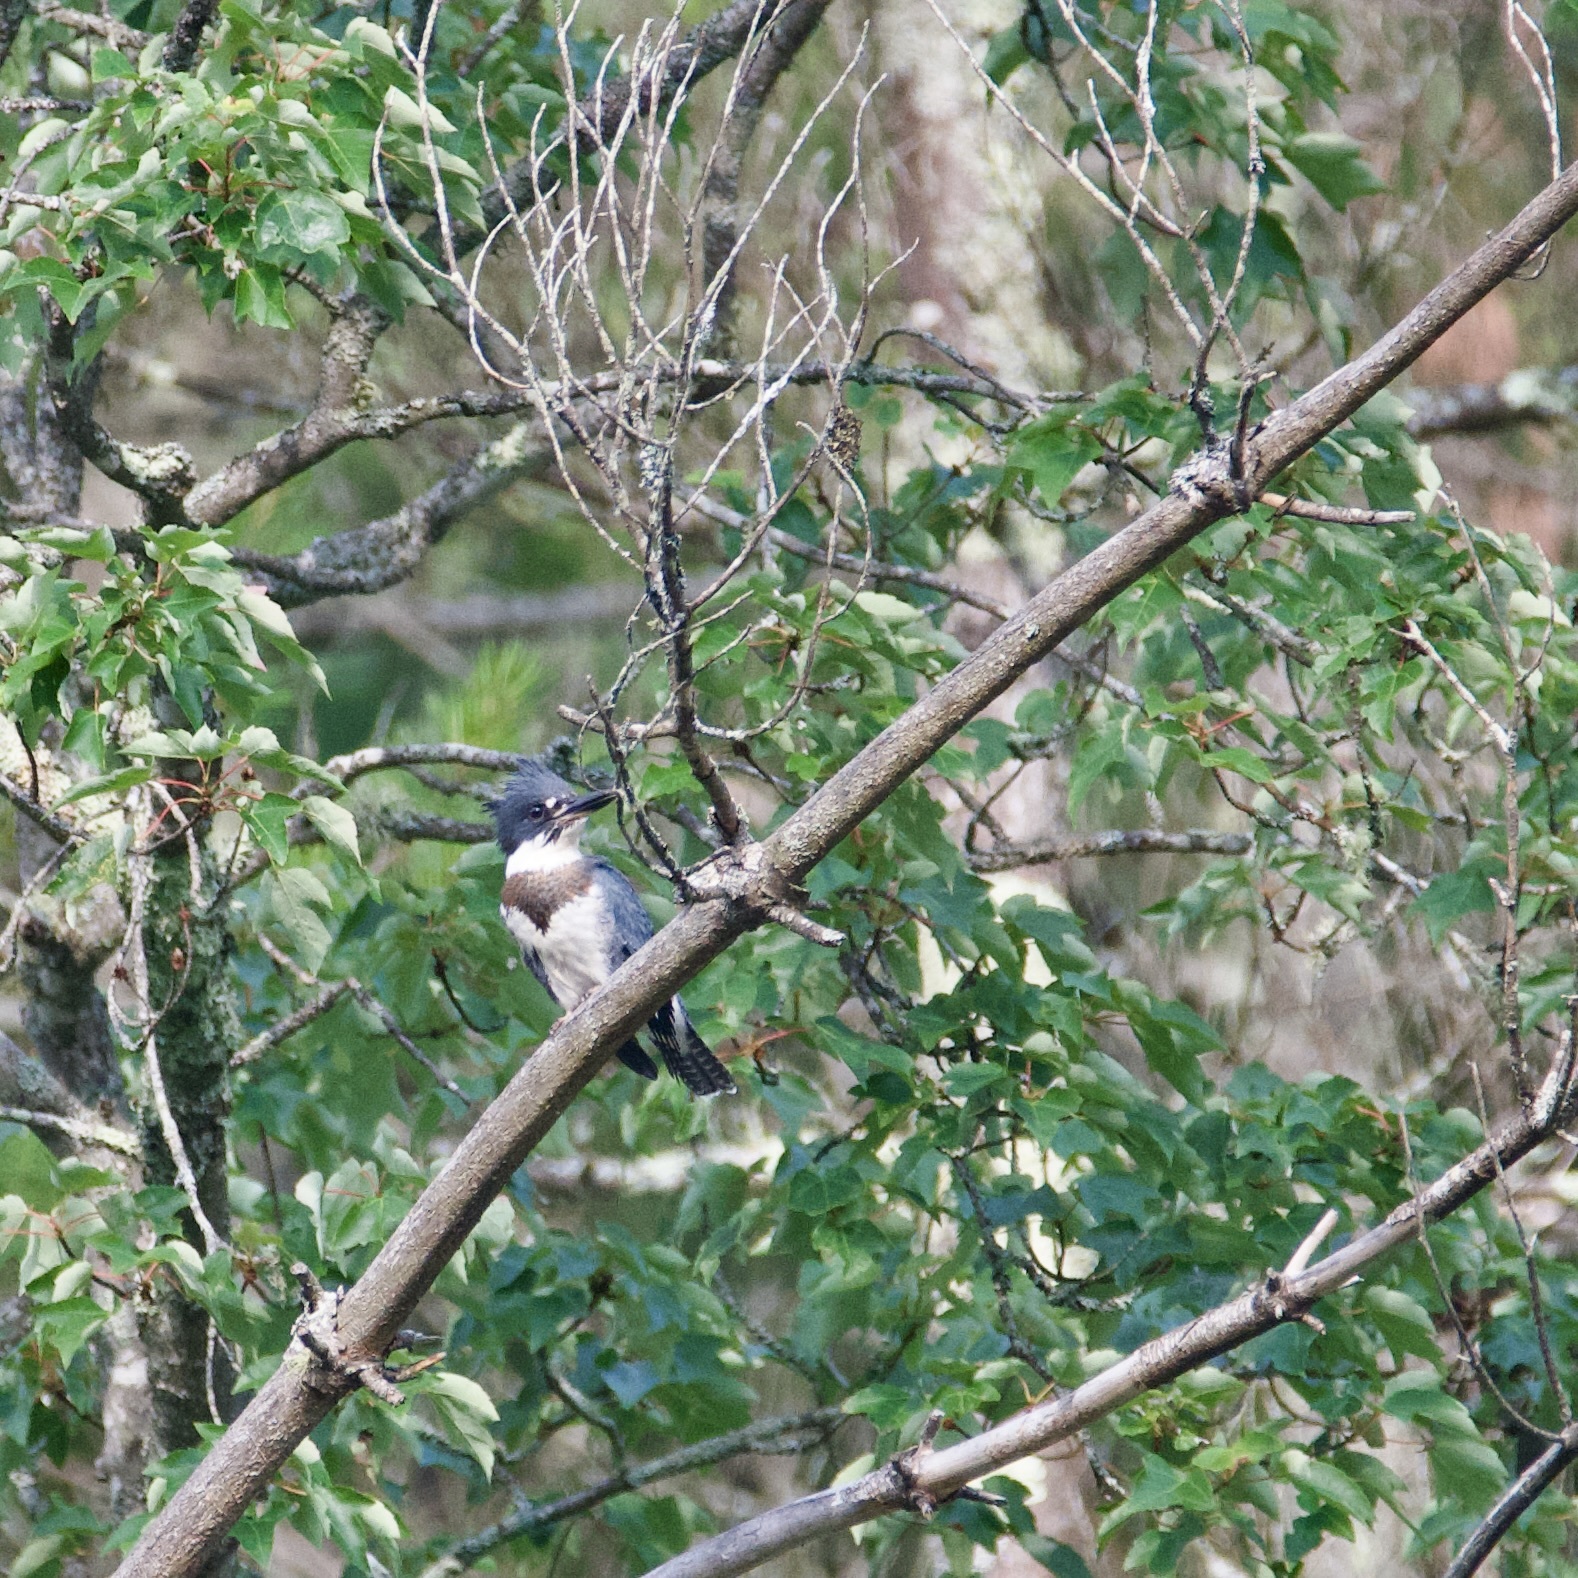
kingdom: Animalia
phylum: Chordata
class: Aves
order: Coraciiformes
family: Alcedinidae
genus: Megaceryle
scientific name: Megaceryle alcyon
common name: Belted kingfisher
